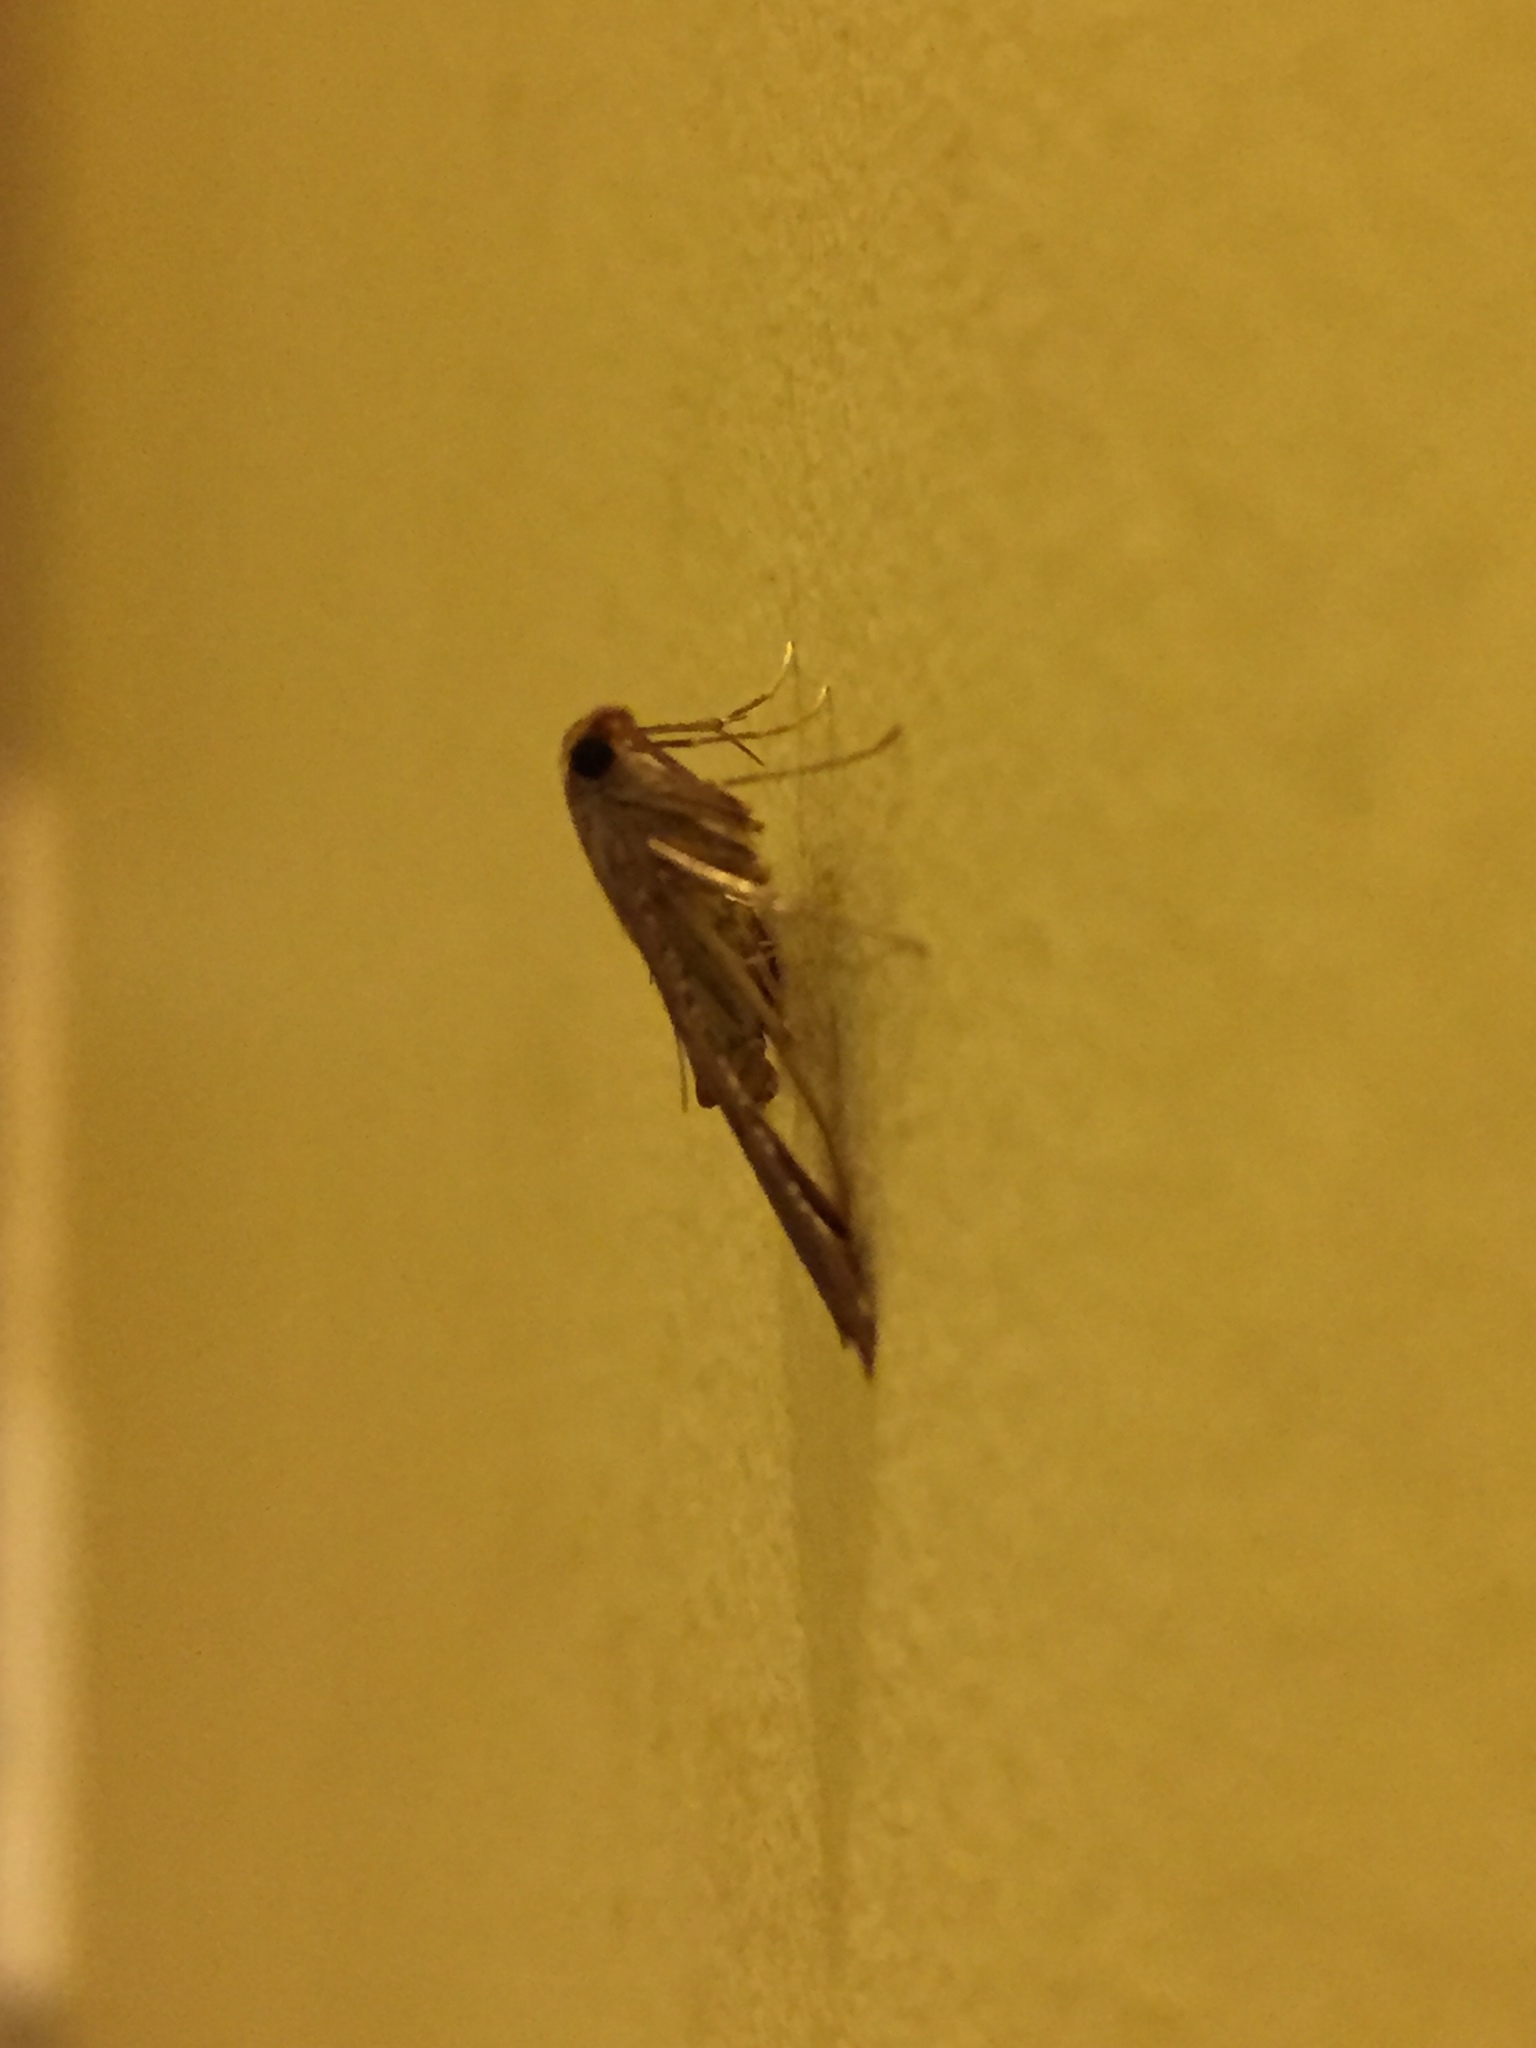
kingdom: Animalia
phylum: Arthropoda
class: Insecta
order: Lepidoptera
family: Pyralidae
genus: Endotricha
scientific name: Endotricha flammealis
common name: Rosy tabby
